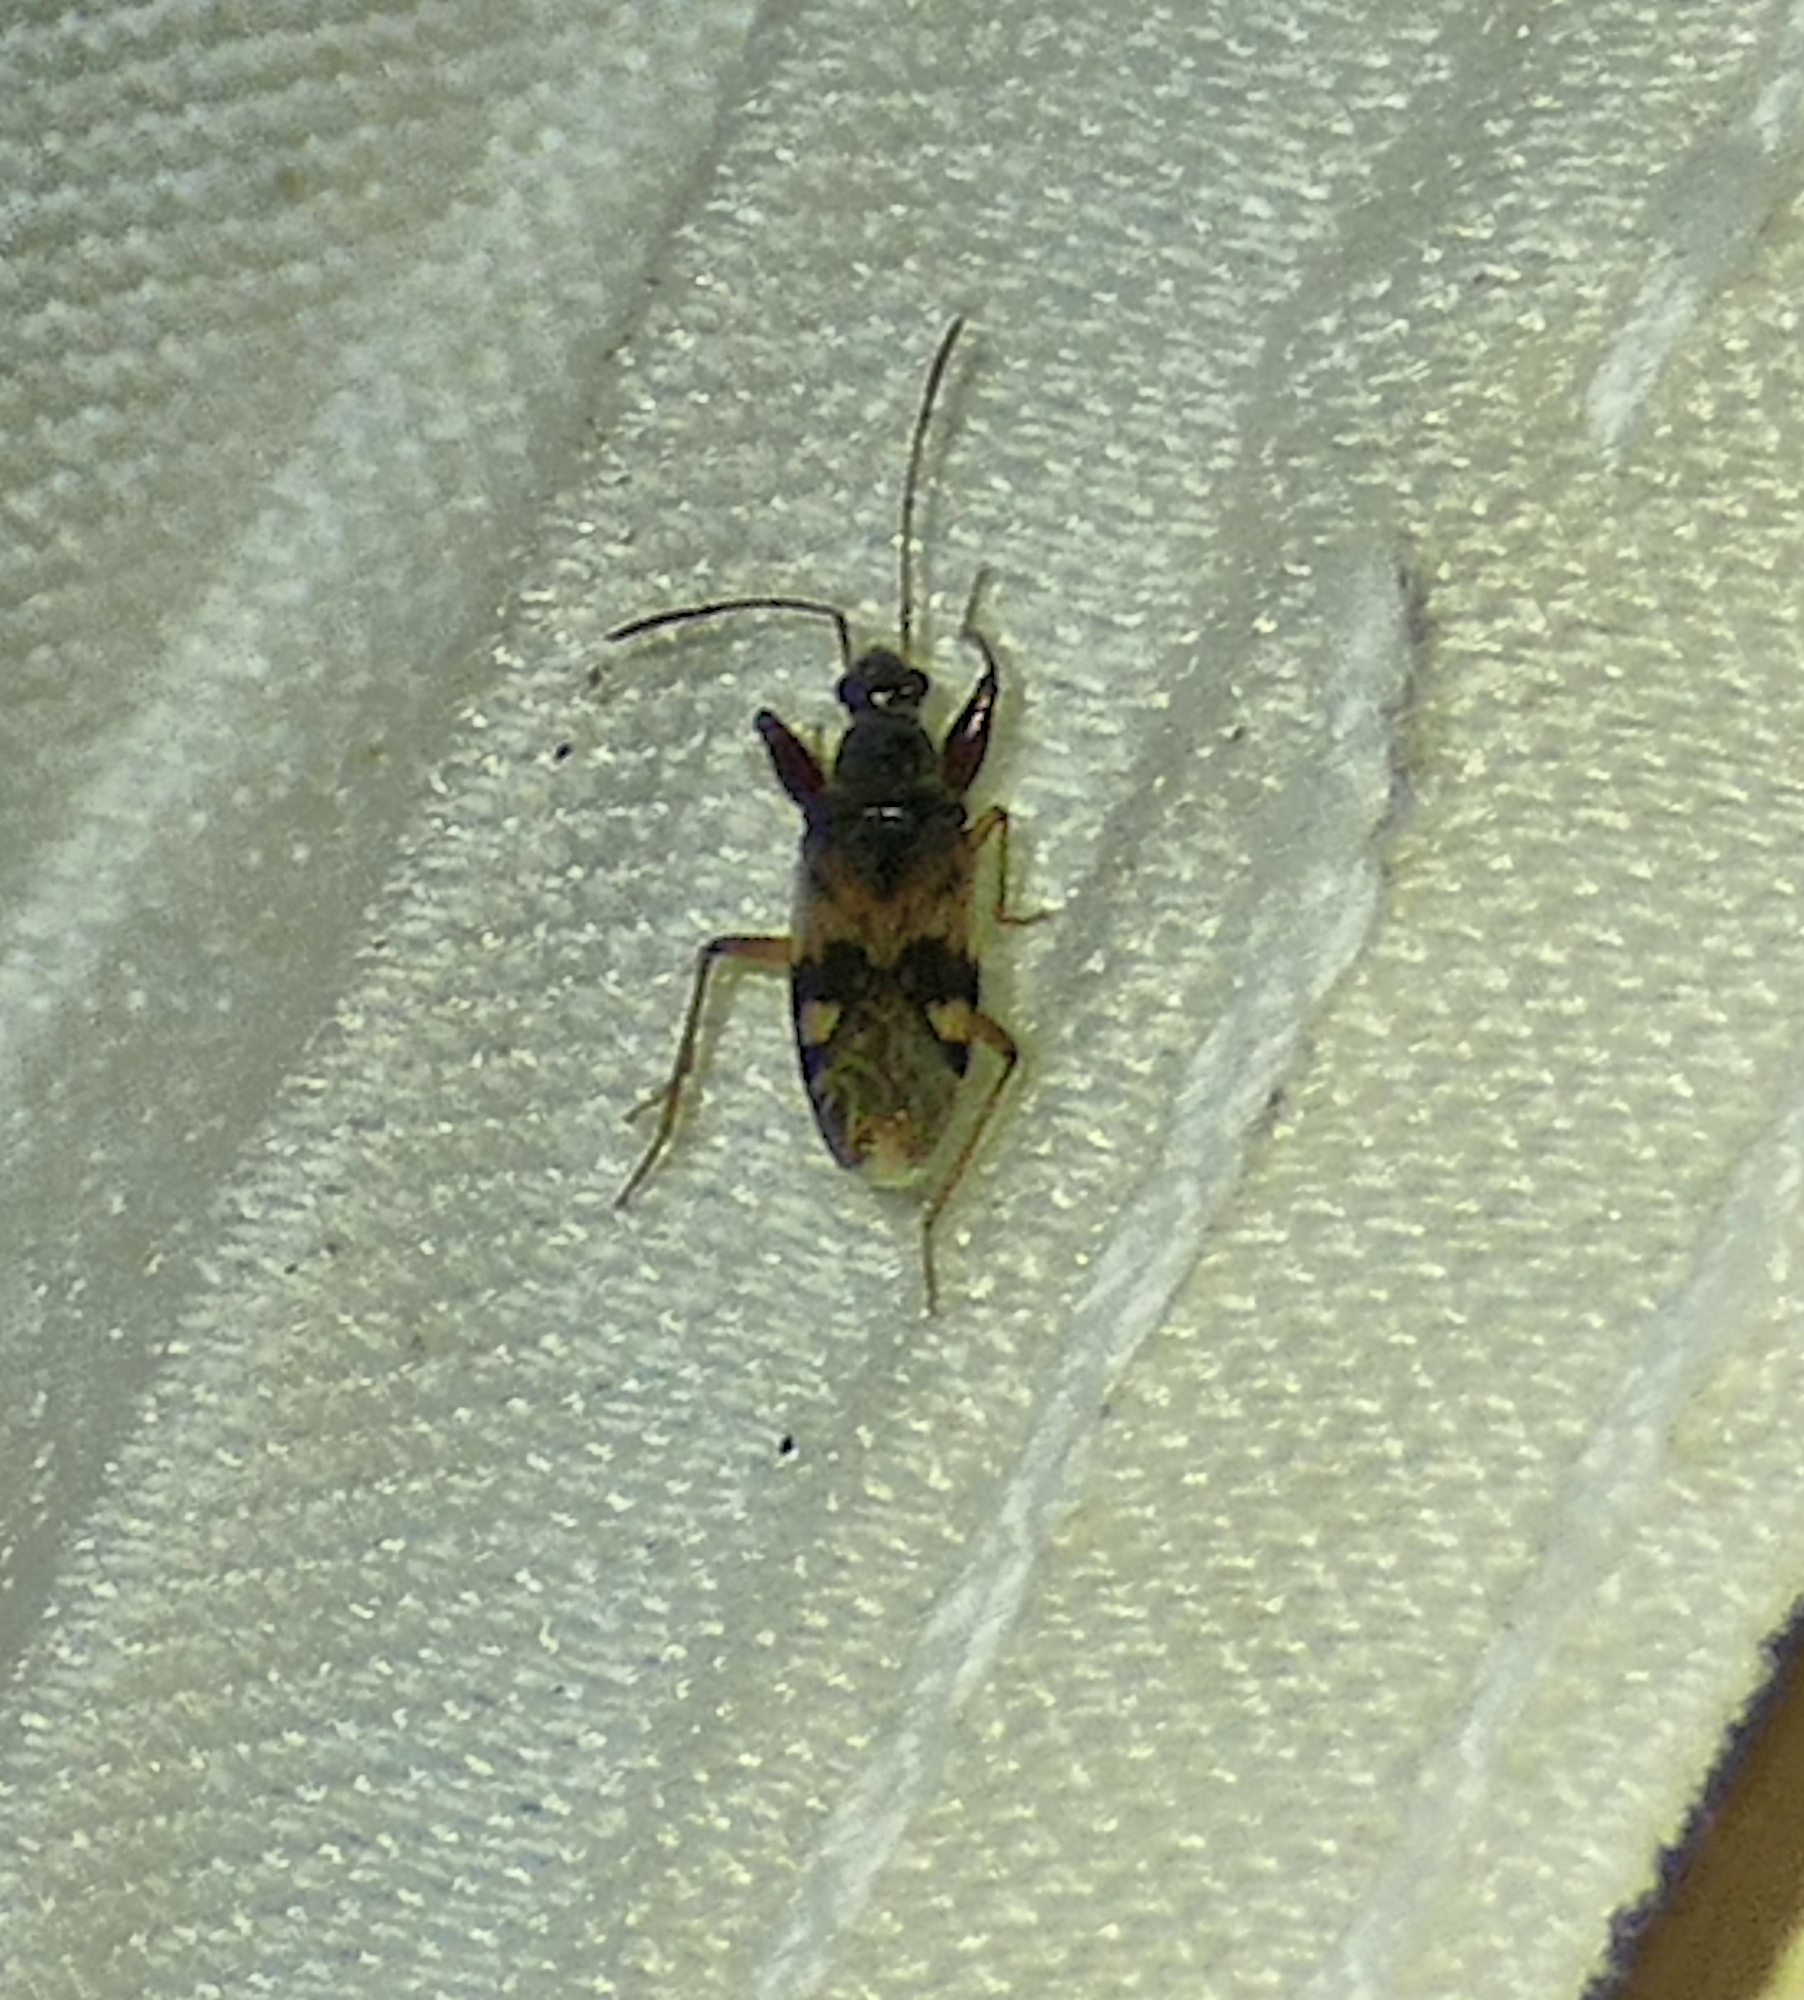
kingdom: Animalia
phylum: Arthropoda
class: Insecta
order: Hemiptera
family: Rhyparochromidae
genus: Pseudopamera
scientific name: Pseudopamera nitidula
